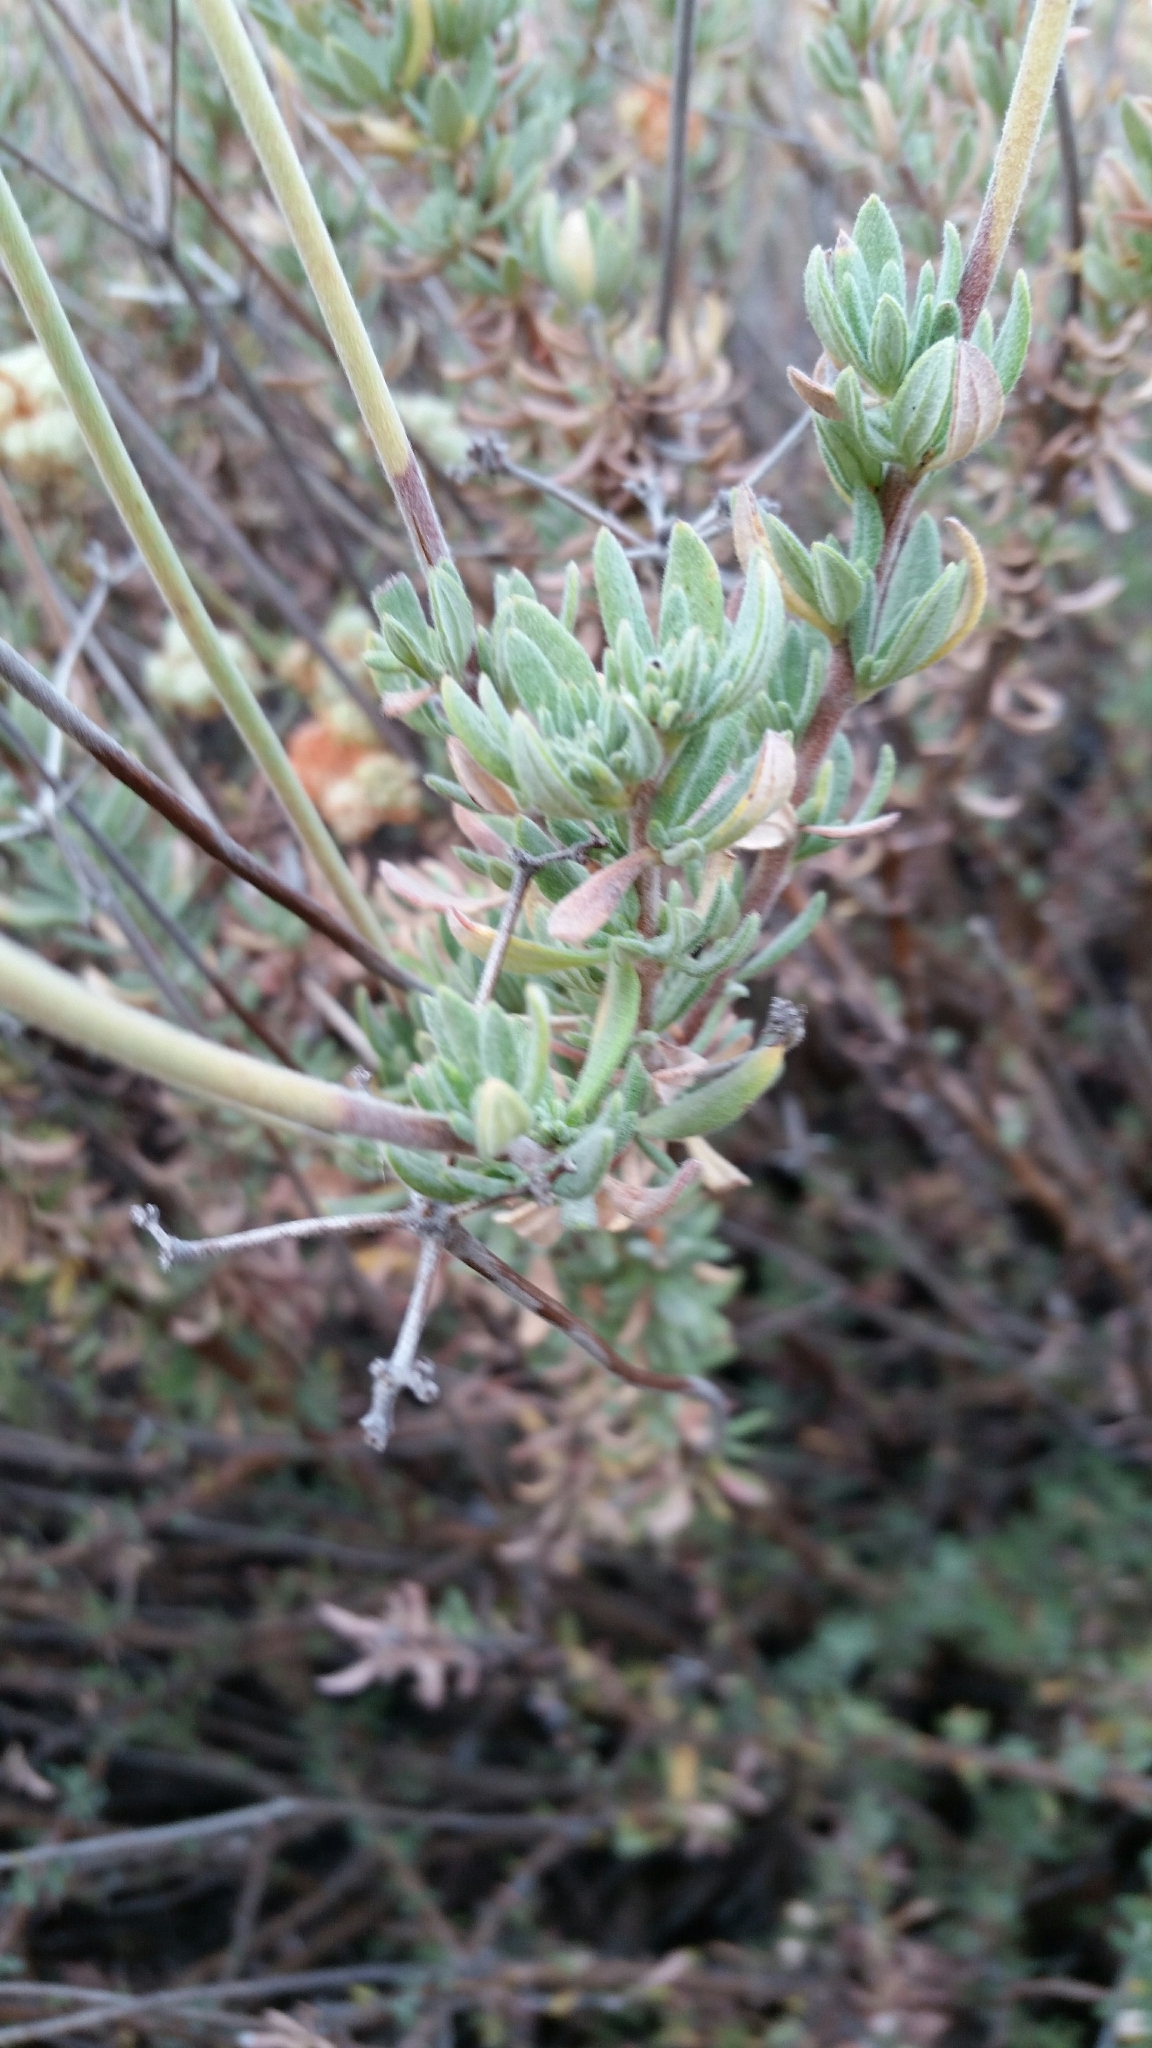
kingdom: Plantae
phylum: Tracheophyta
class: Magnoliopsida
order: Caryophyllales
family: Polygonaceae
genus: Eriogonum
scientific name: Eriogonum fasciculatum
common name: California wild buckwheat
